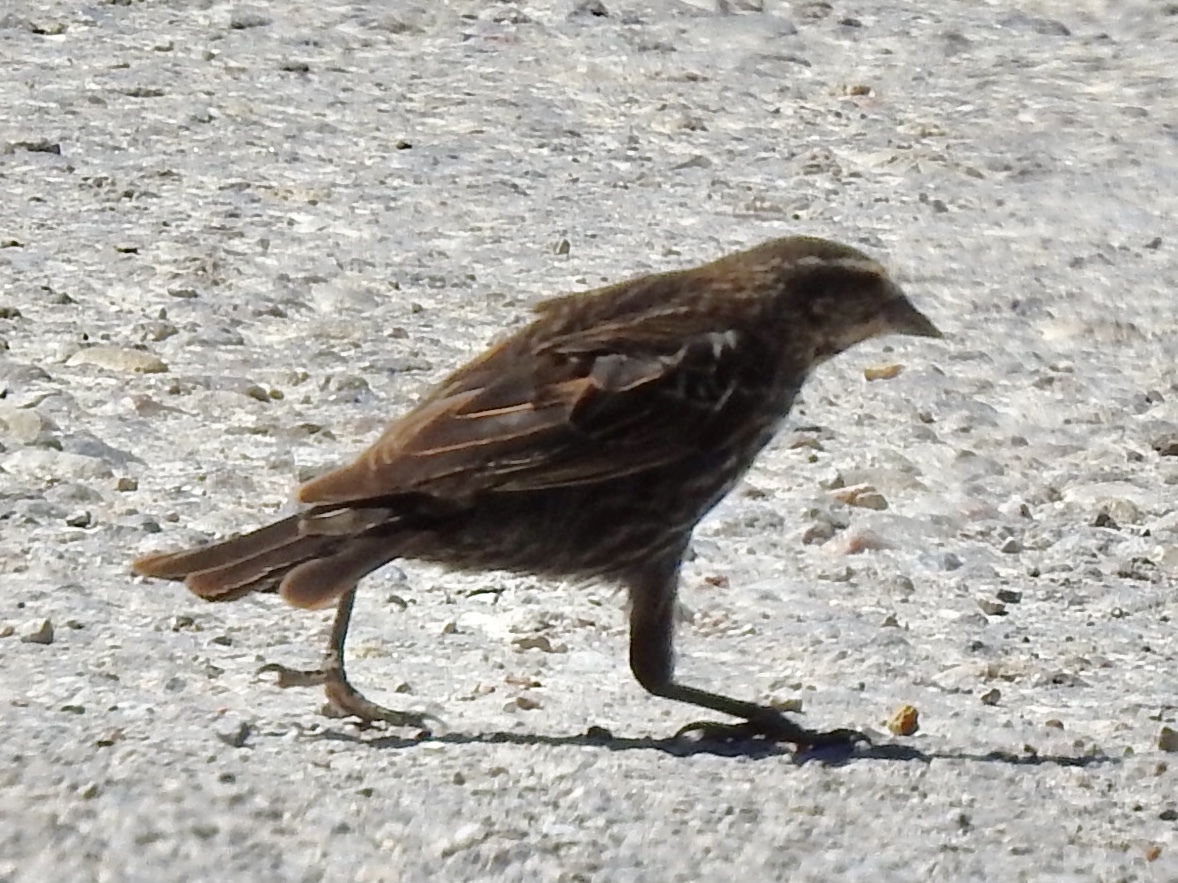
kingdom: Animalia
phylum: Chordata
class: Aves
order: Passeriformes
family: Icteridae
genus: Agelaius
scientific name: Agelaius phoeniceus
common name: Red-winged blackbird
